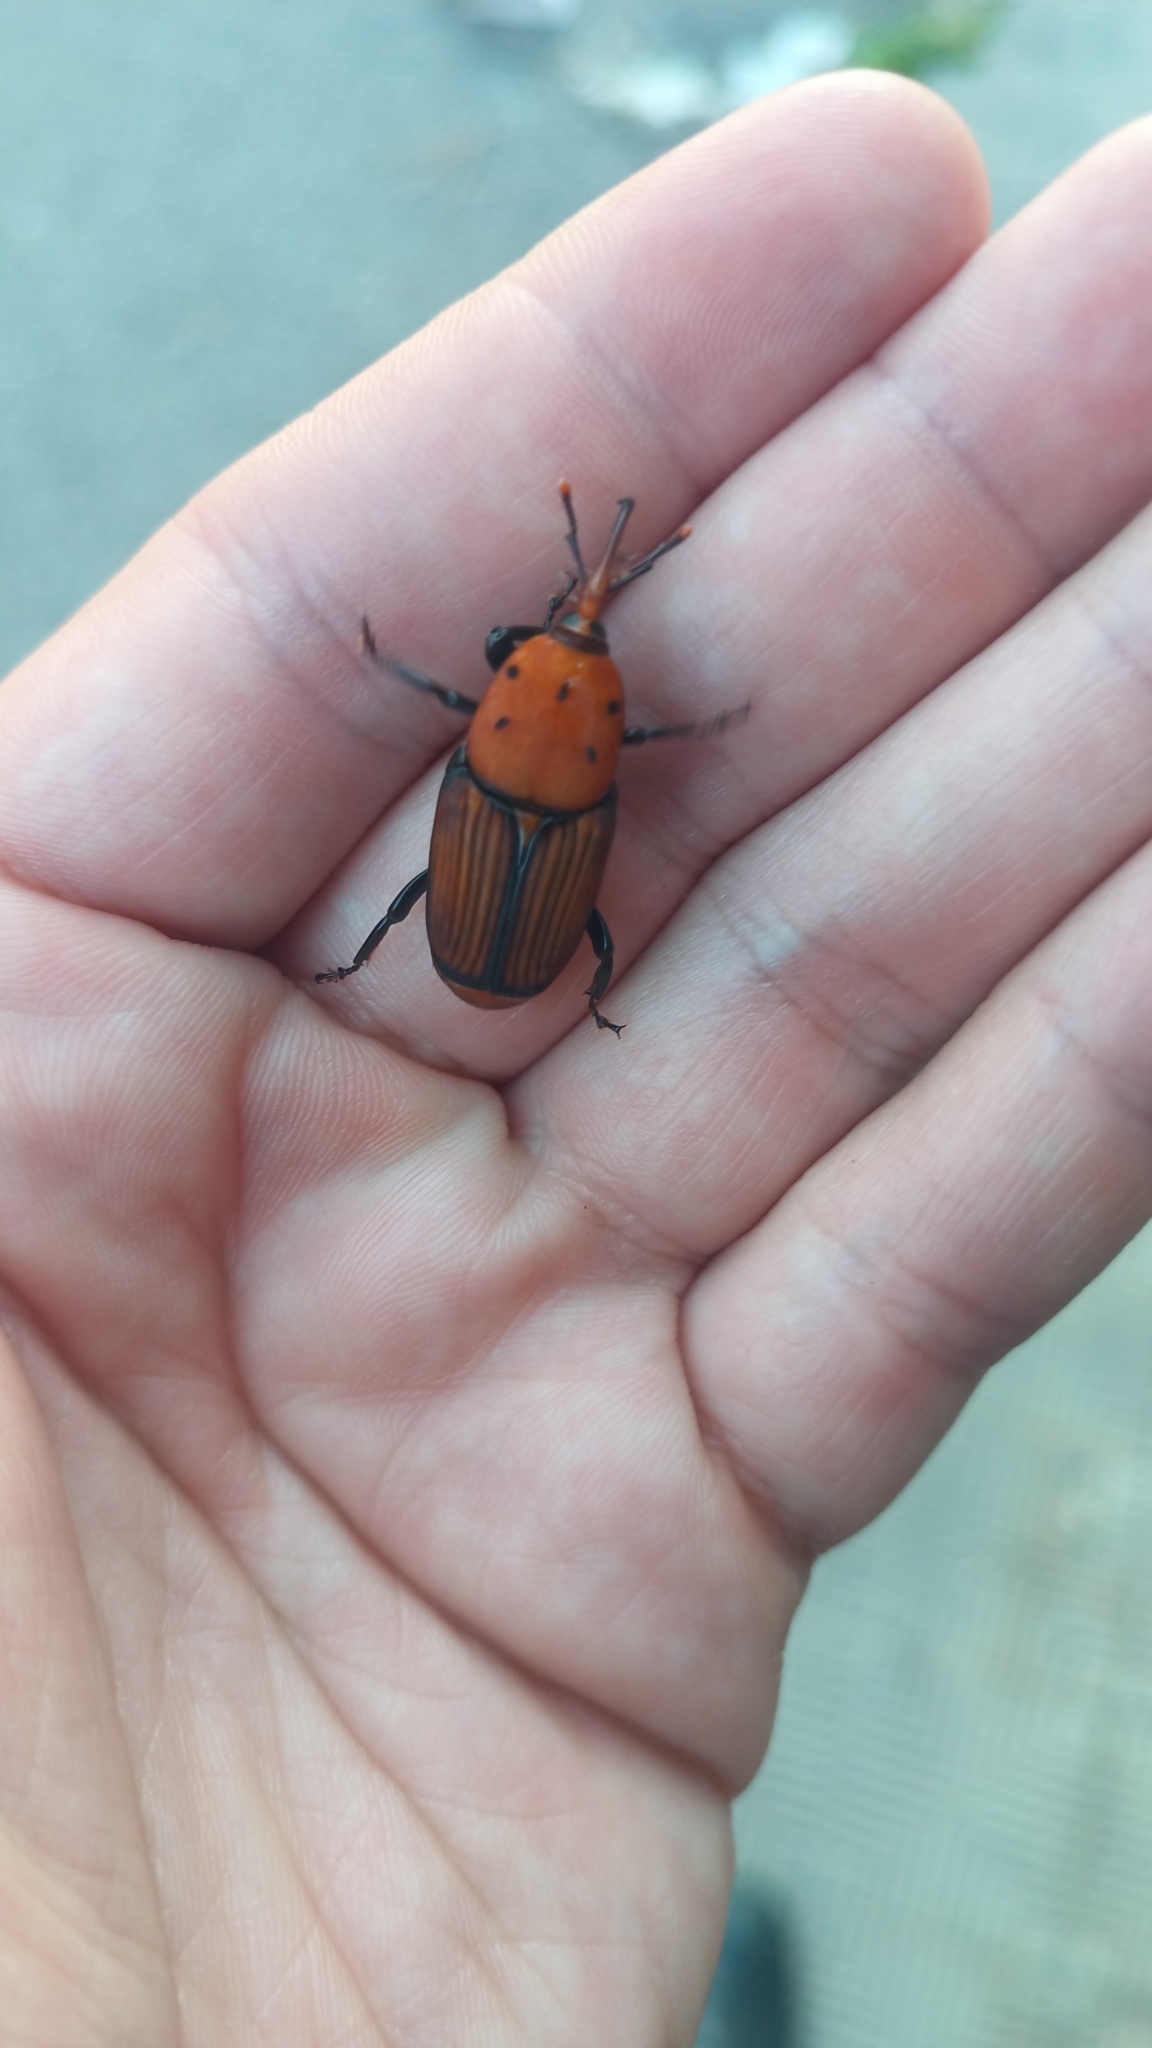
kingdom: Animalia
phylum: Arthropoda
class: Insecta
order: Coleoptera
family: Dryophthoridae
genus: Rhynchophorus
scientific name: Rhynchophorus ferrugineus
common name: Red palm weevil
